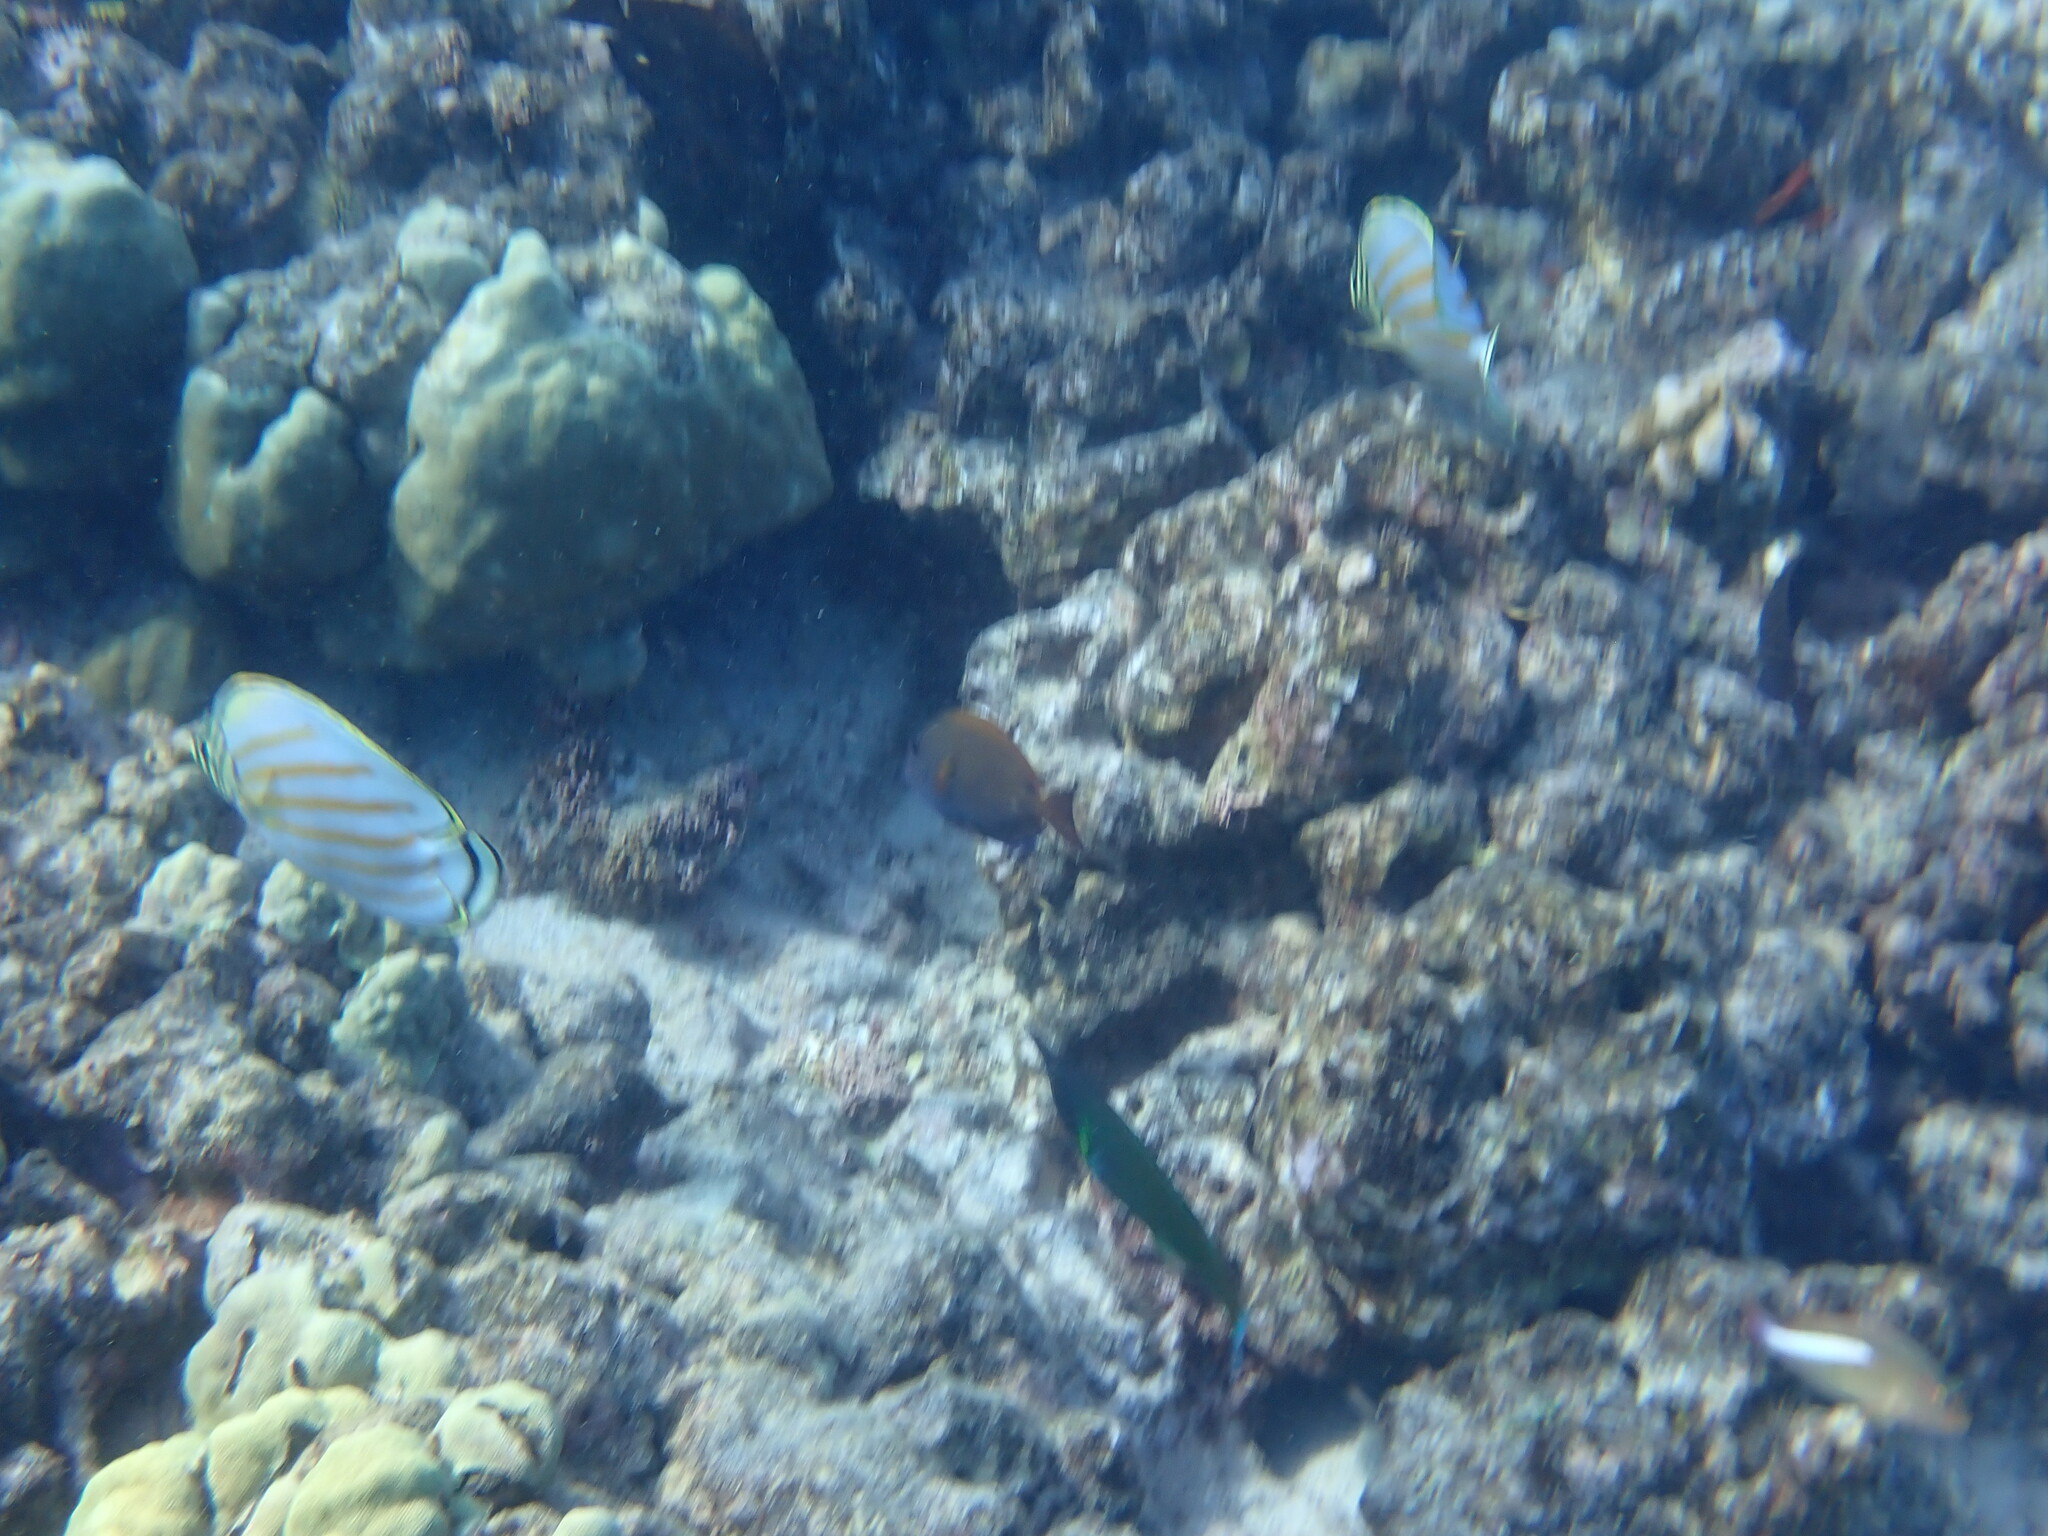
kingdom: Animalia
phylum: Chordata
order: Perciformes
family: Acanthuridae
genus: Acanthurus
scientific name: Acanthurus nigrofuscus
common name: Blackspot surgeonfish
